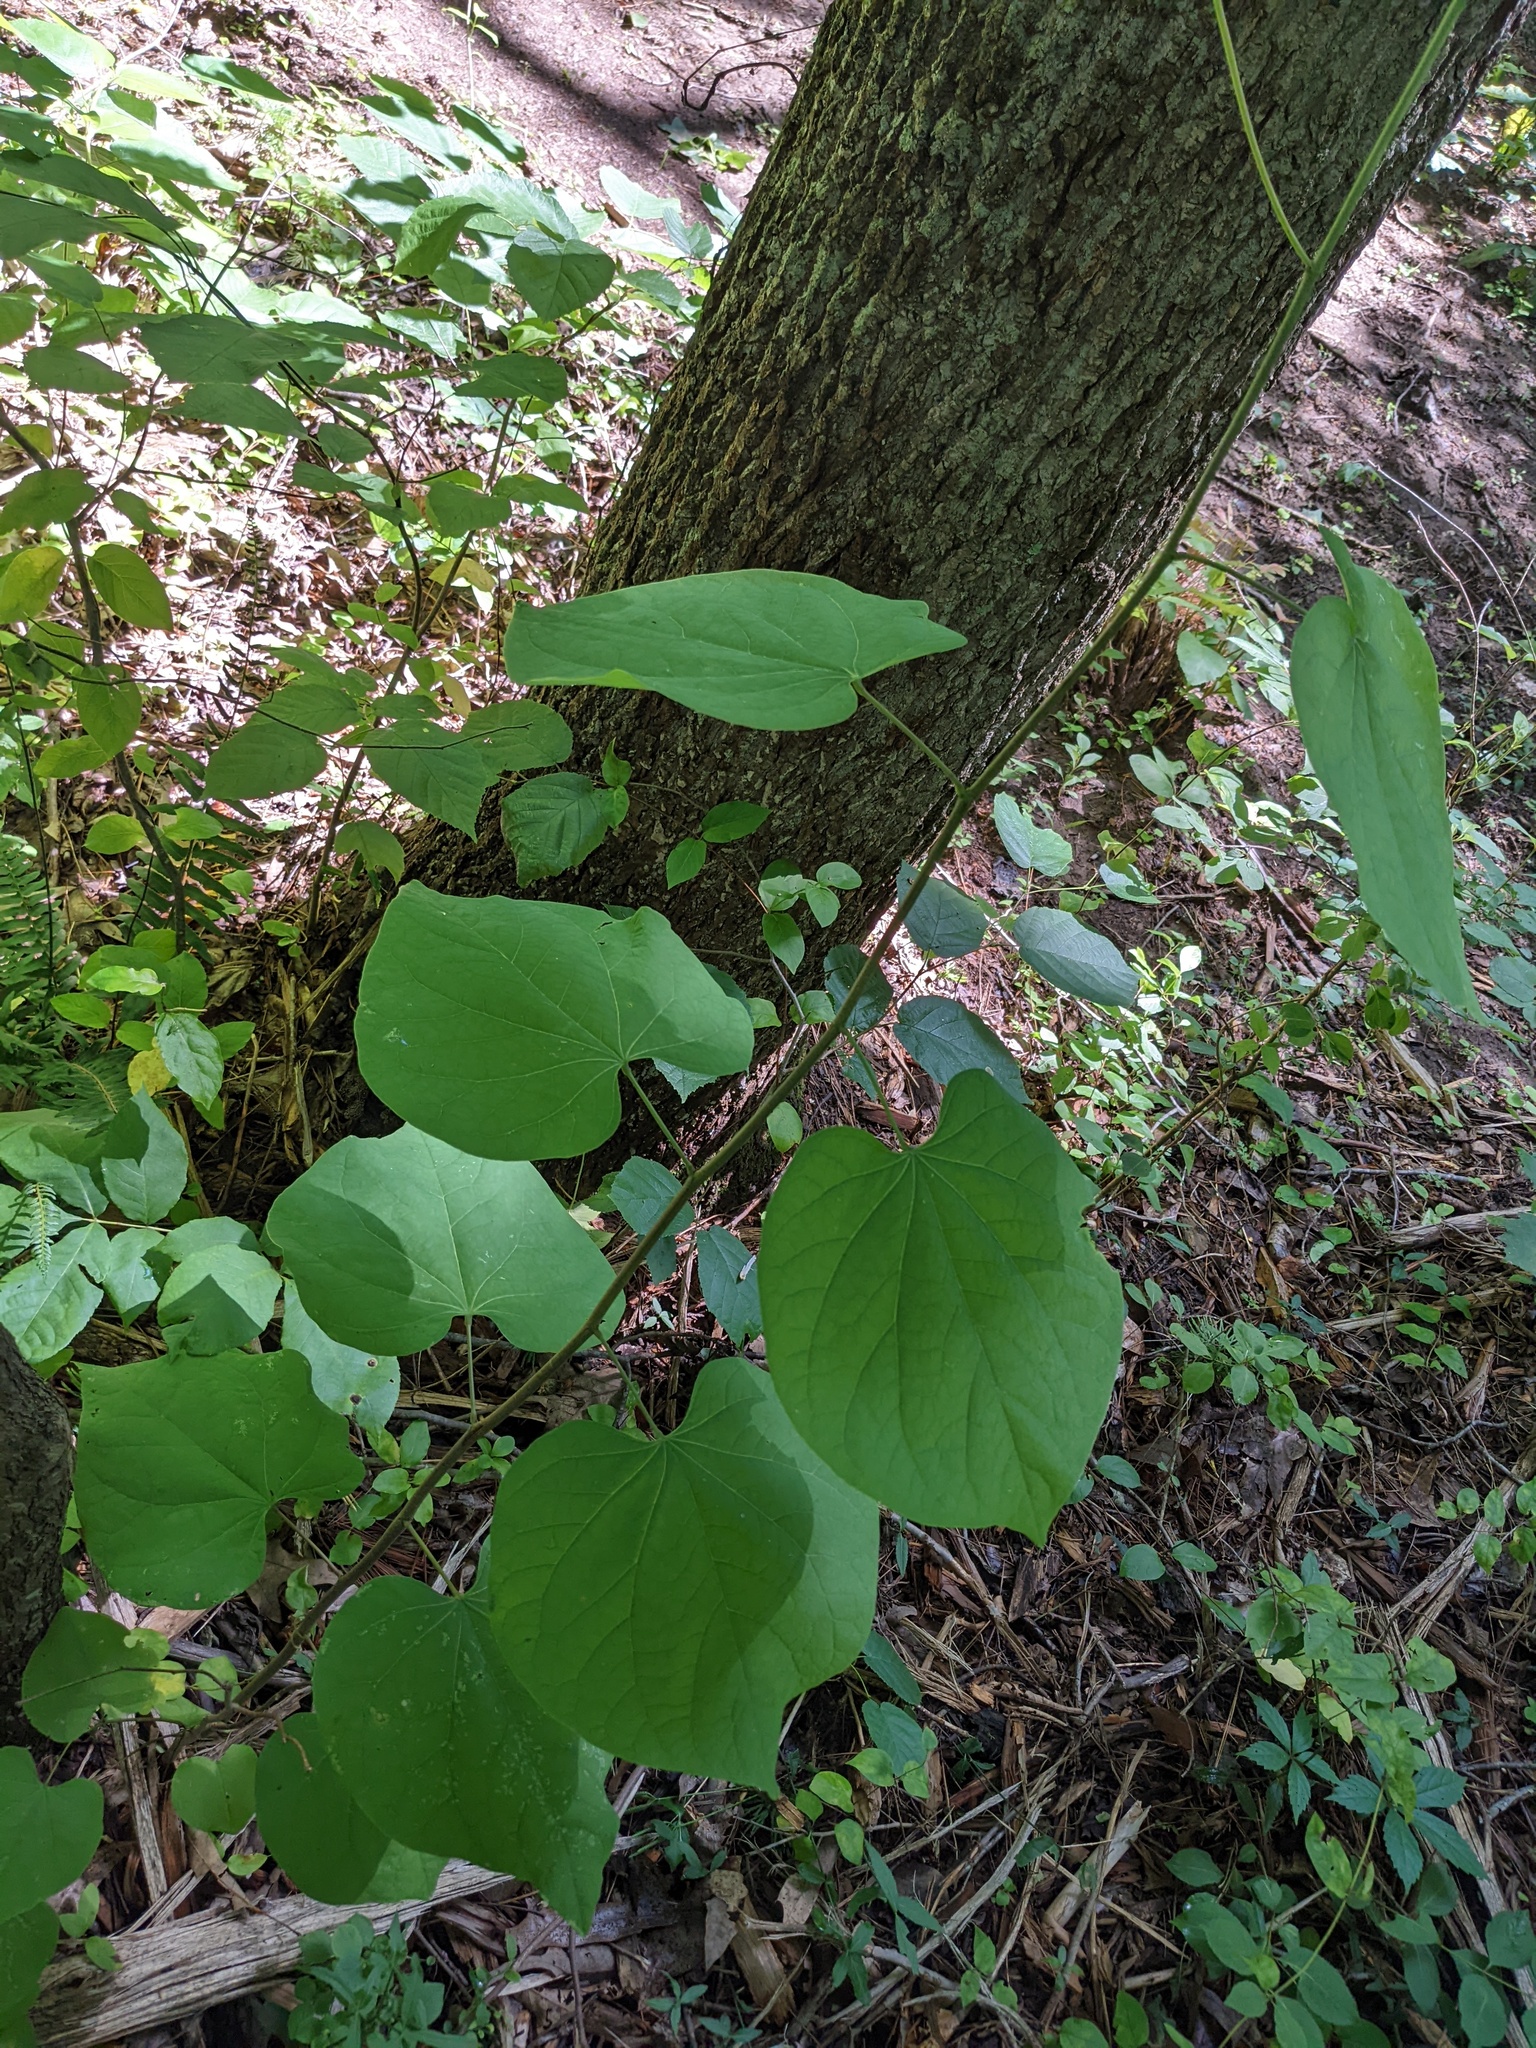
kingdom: Plantae
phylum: Tracheophyta
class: Magnoliopsida
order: Fabales
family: Fabaceae
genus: Cercis
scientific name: Cercis canadensis
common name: Eastern redbud
